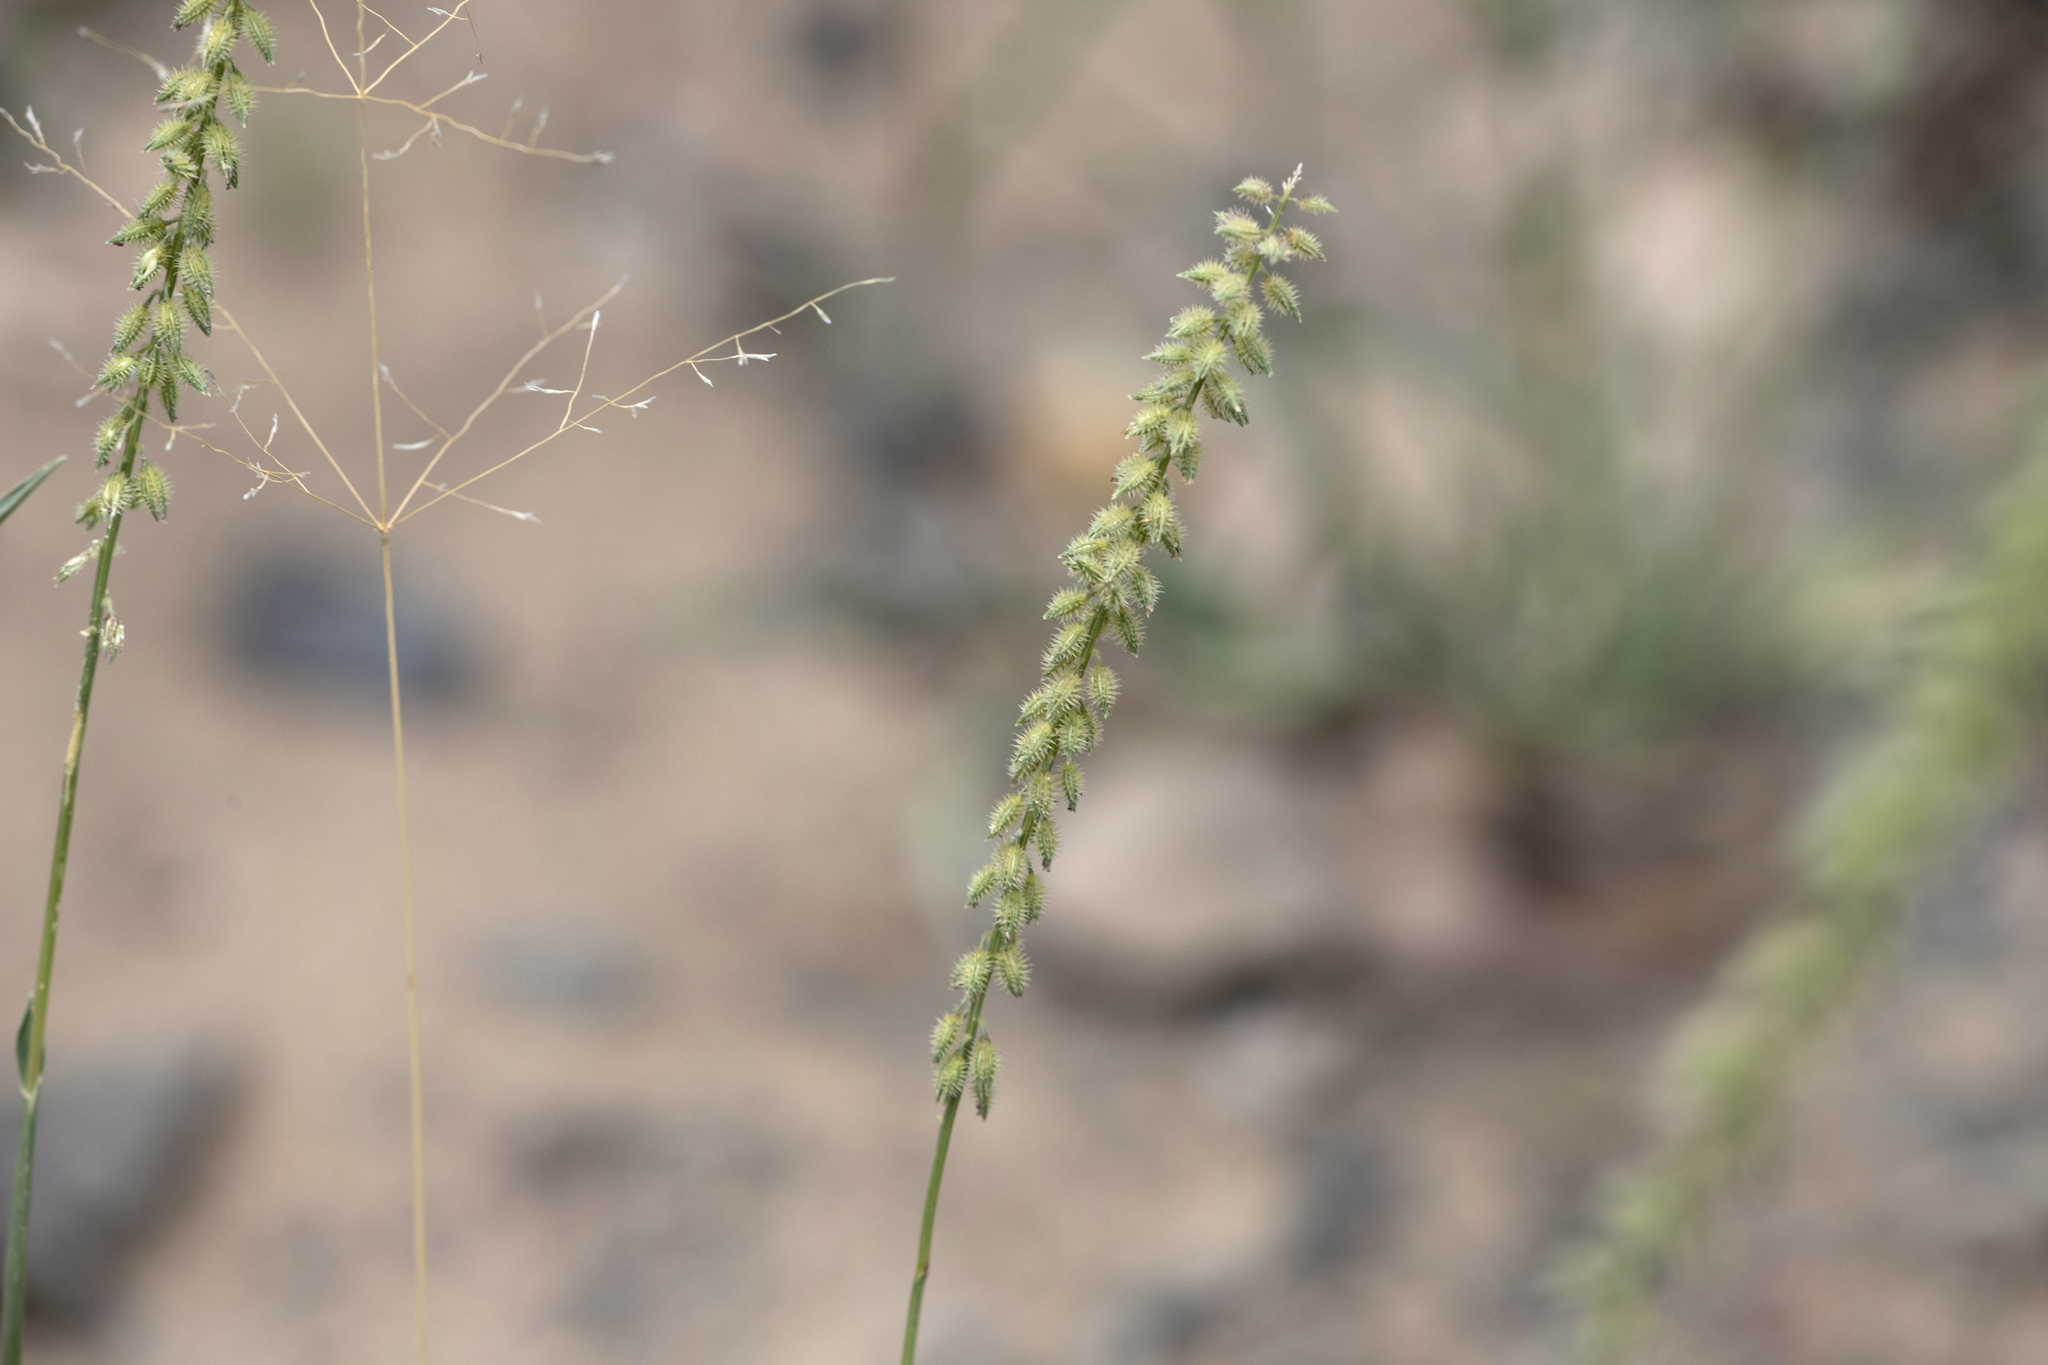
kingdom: Plantae
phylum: Tracheophyta
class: Liliopsida
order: Poales
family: Poaceae
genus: Tragus
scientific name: Tragus australianus
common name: Australian bur-grass
